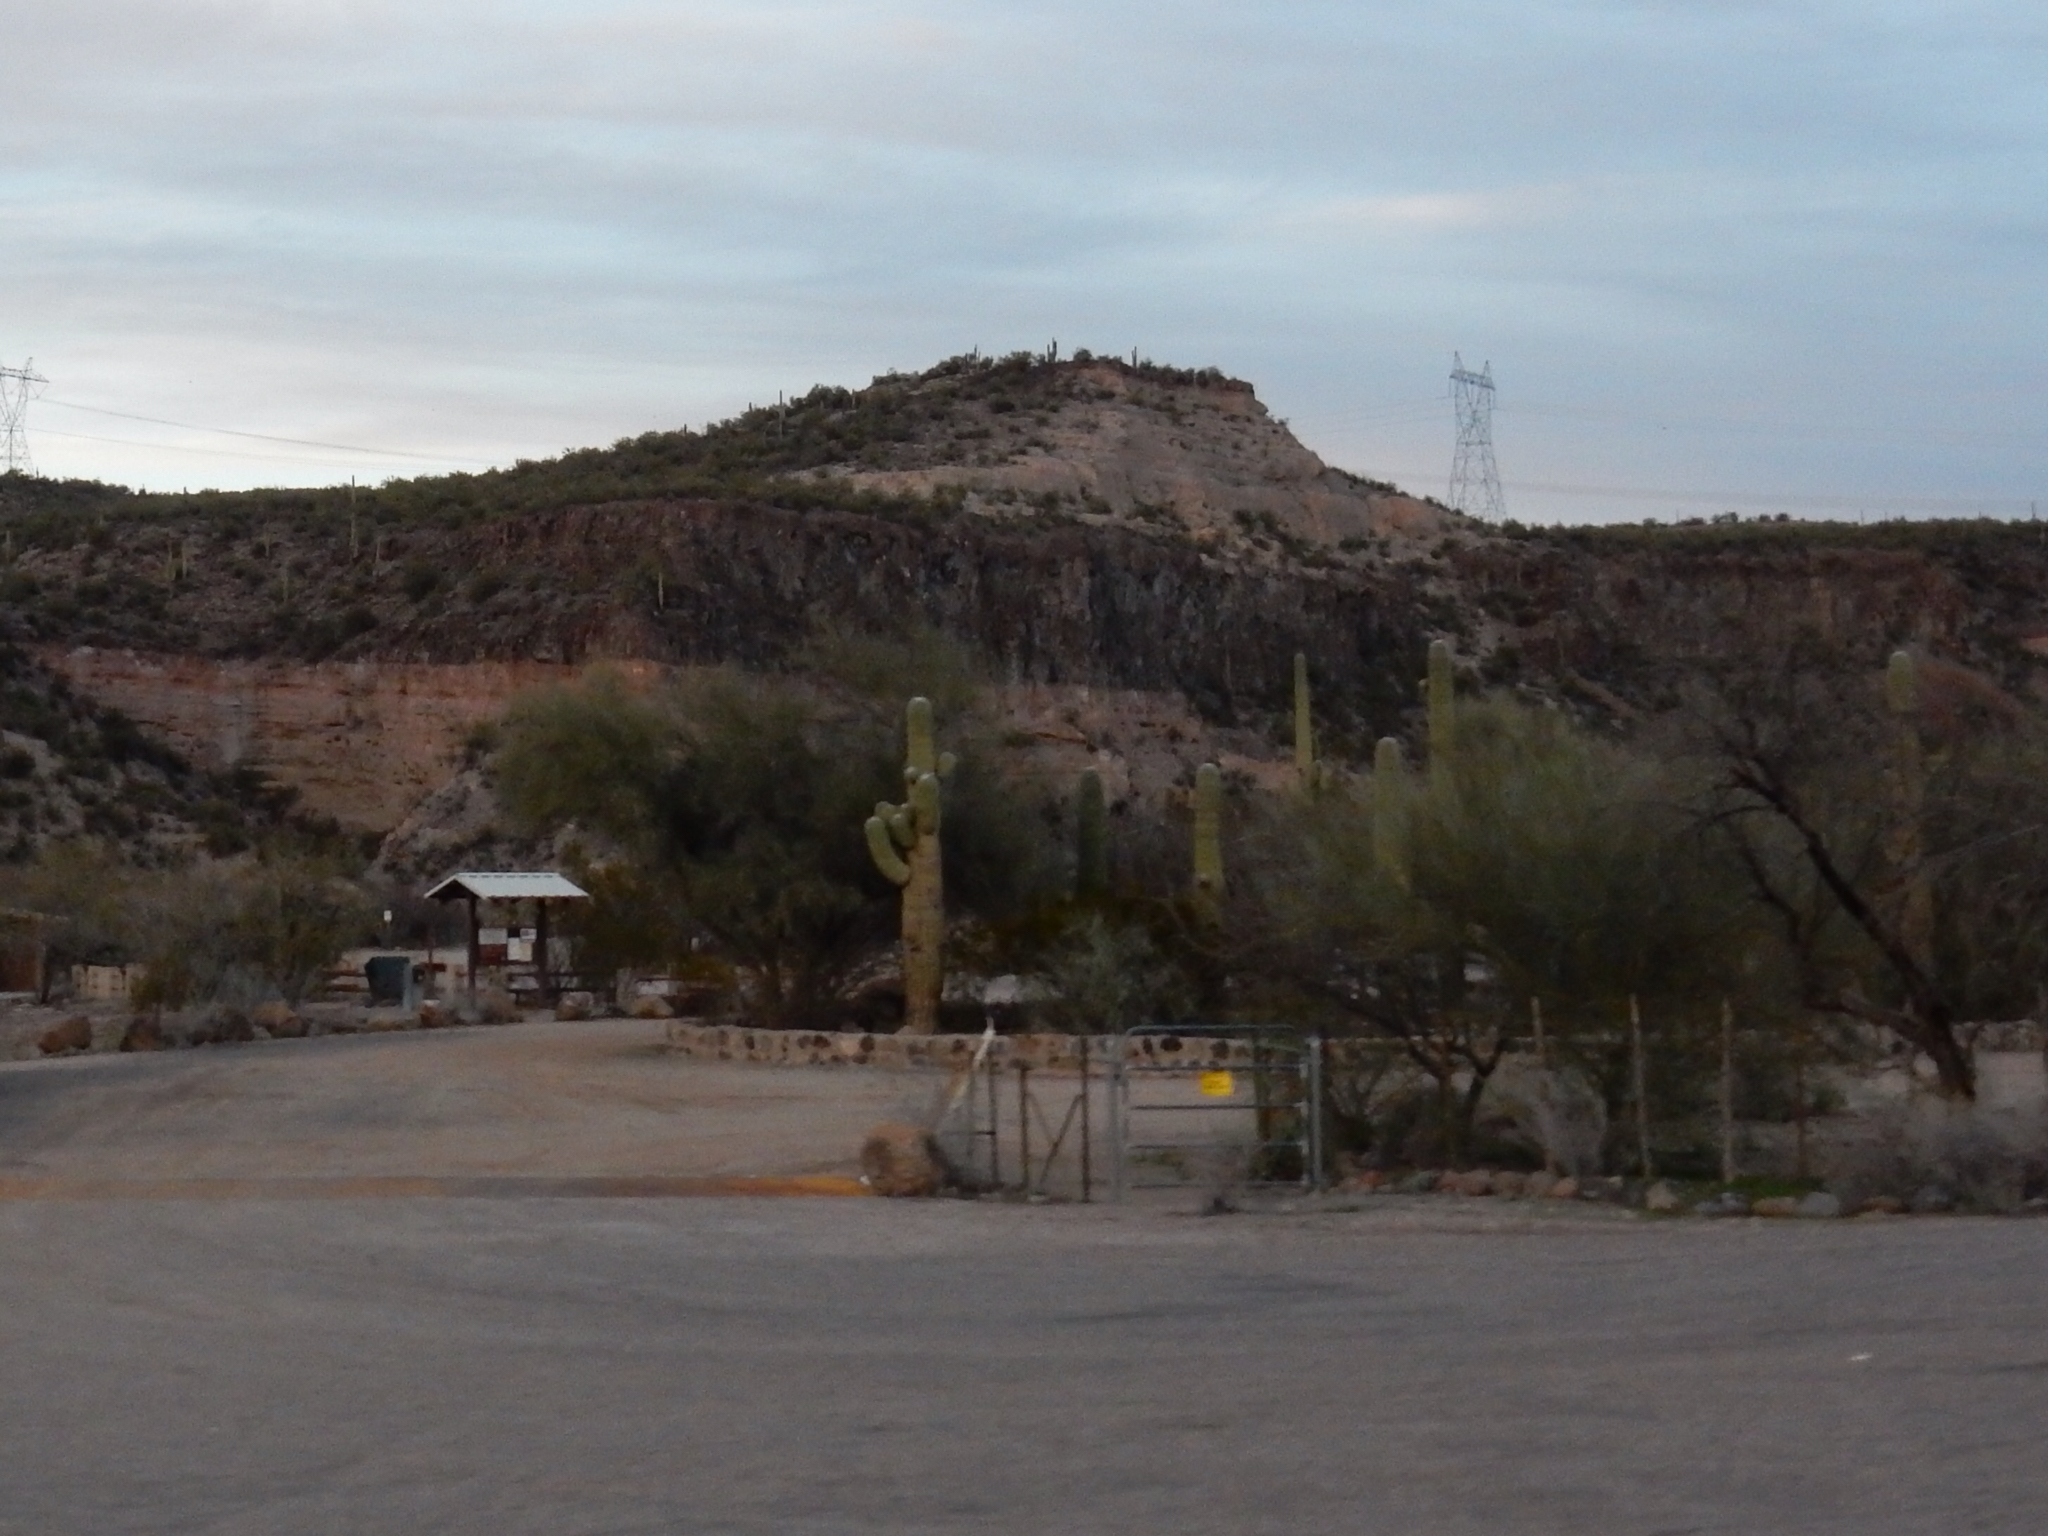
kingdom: Plantae
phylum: Tracheophyta
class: Magnoliopsida
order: Caryophyllales
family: Cactaceae
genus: Carnegiea
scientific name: Carnegiea gigantea
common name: Saguaro
